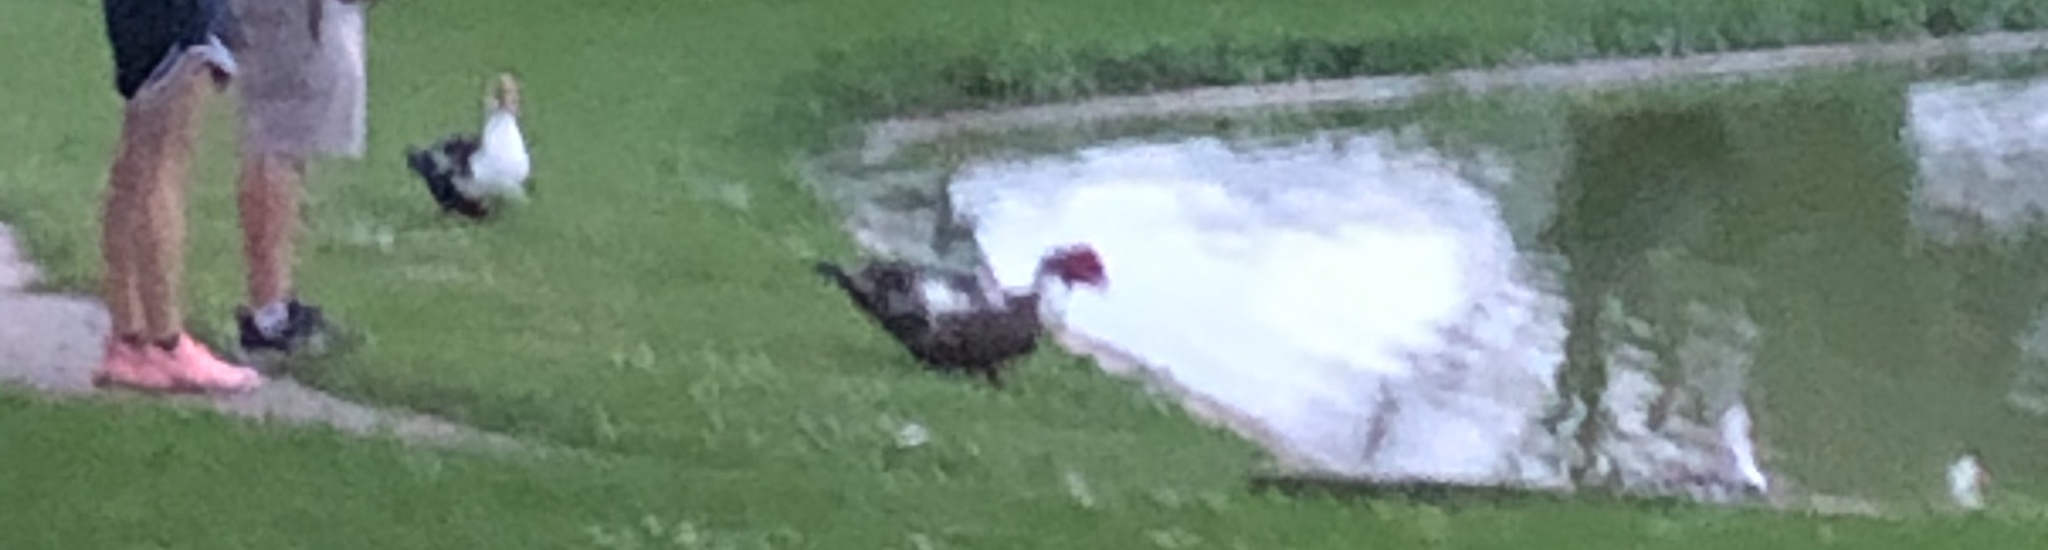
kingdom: Animalia
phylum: Chordata
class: Aves
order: Anseriformes
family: Anatidae
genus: Cairina
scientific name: Cairina moschata
